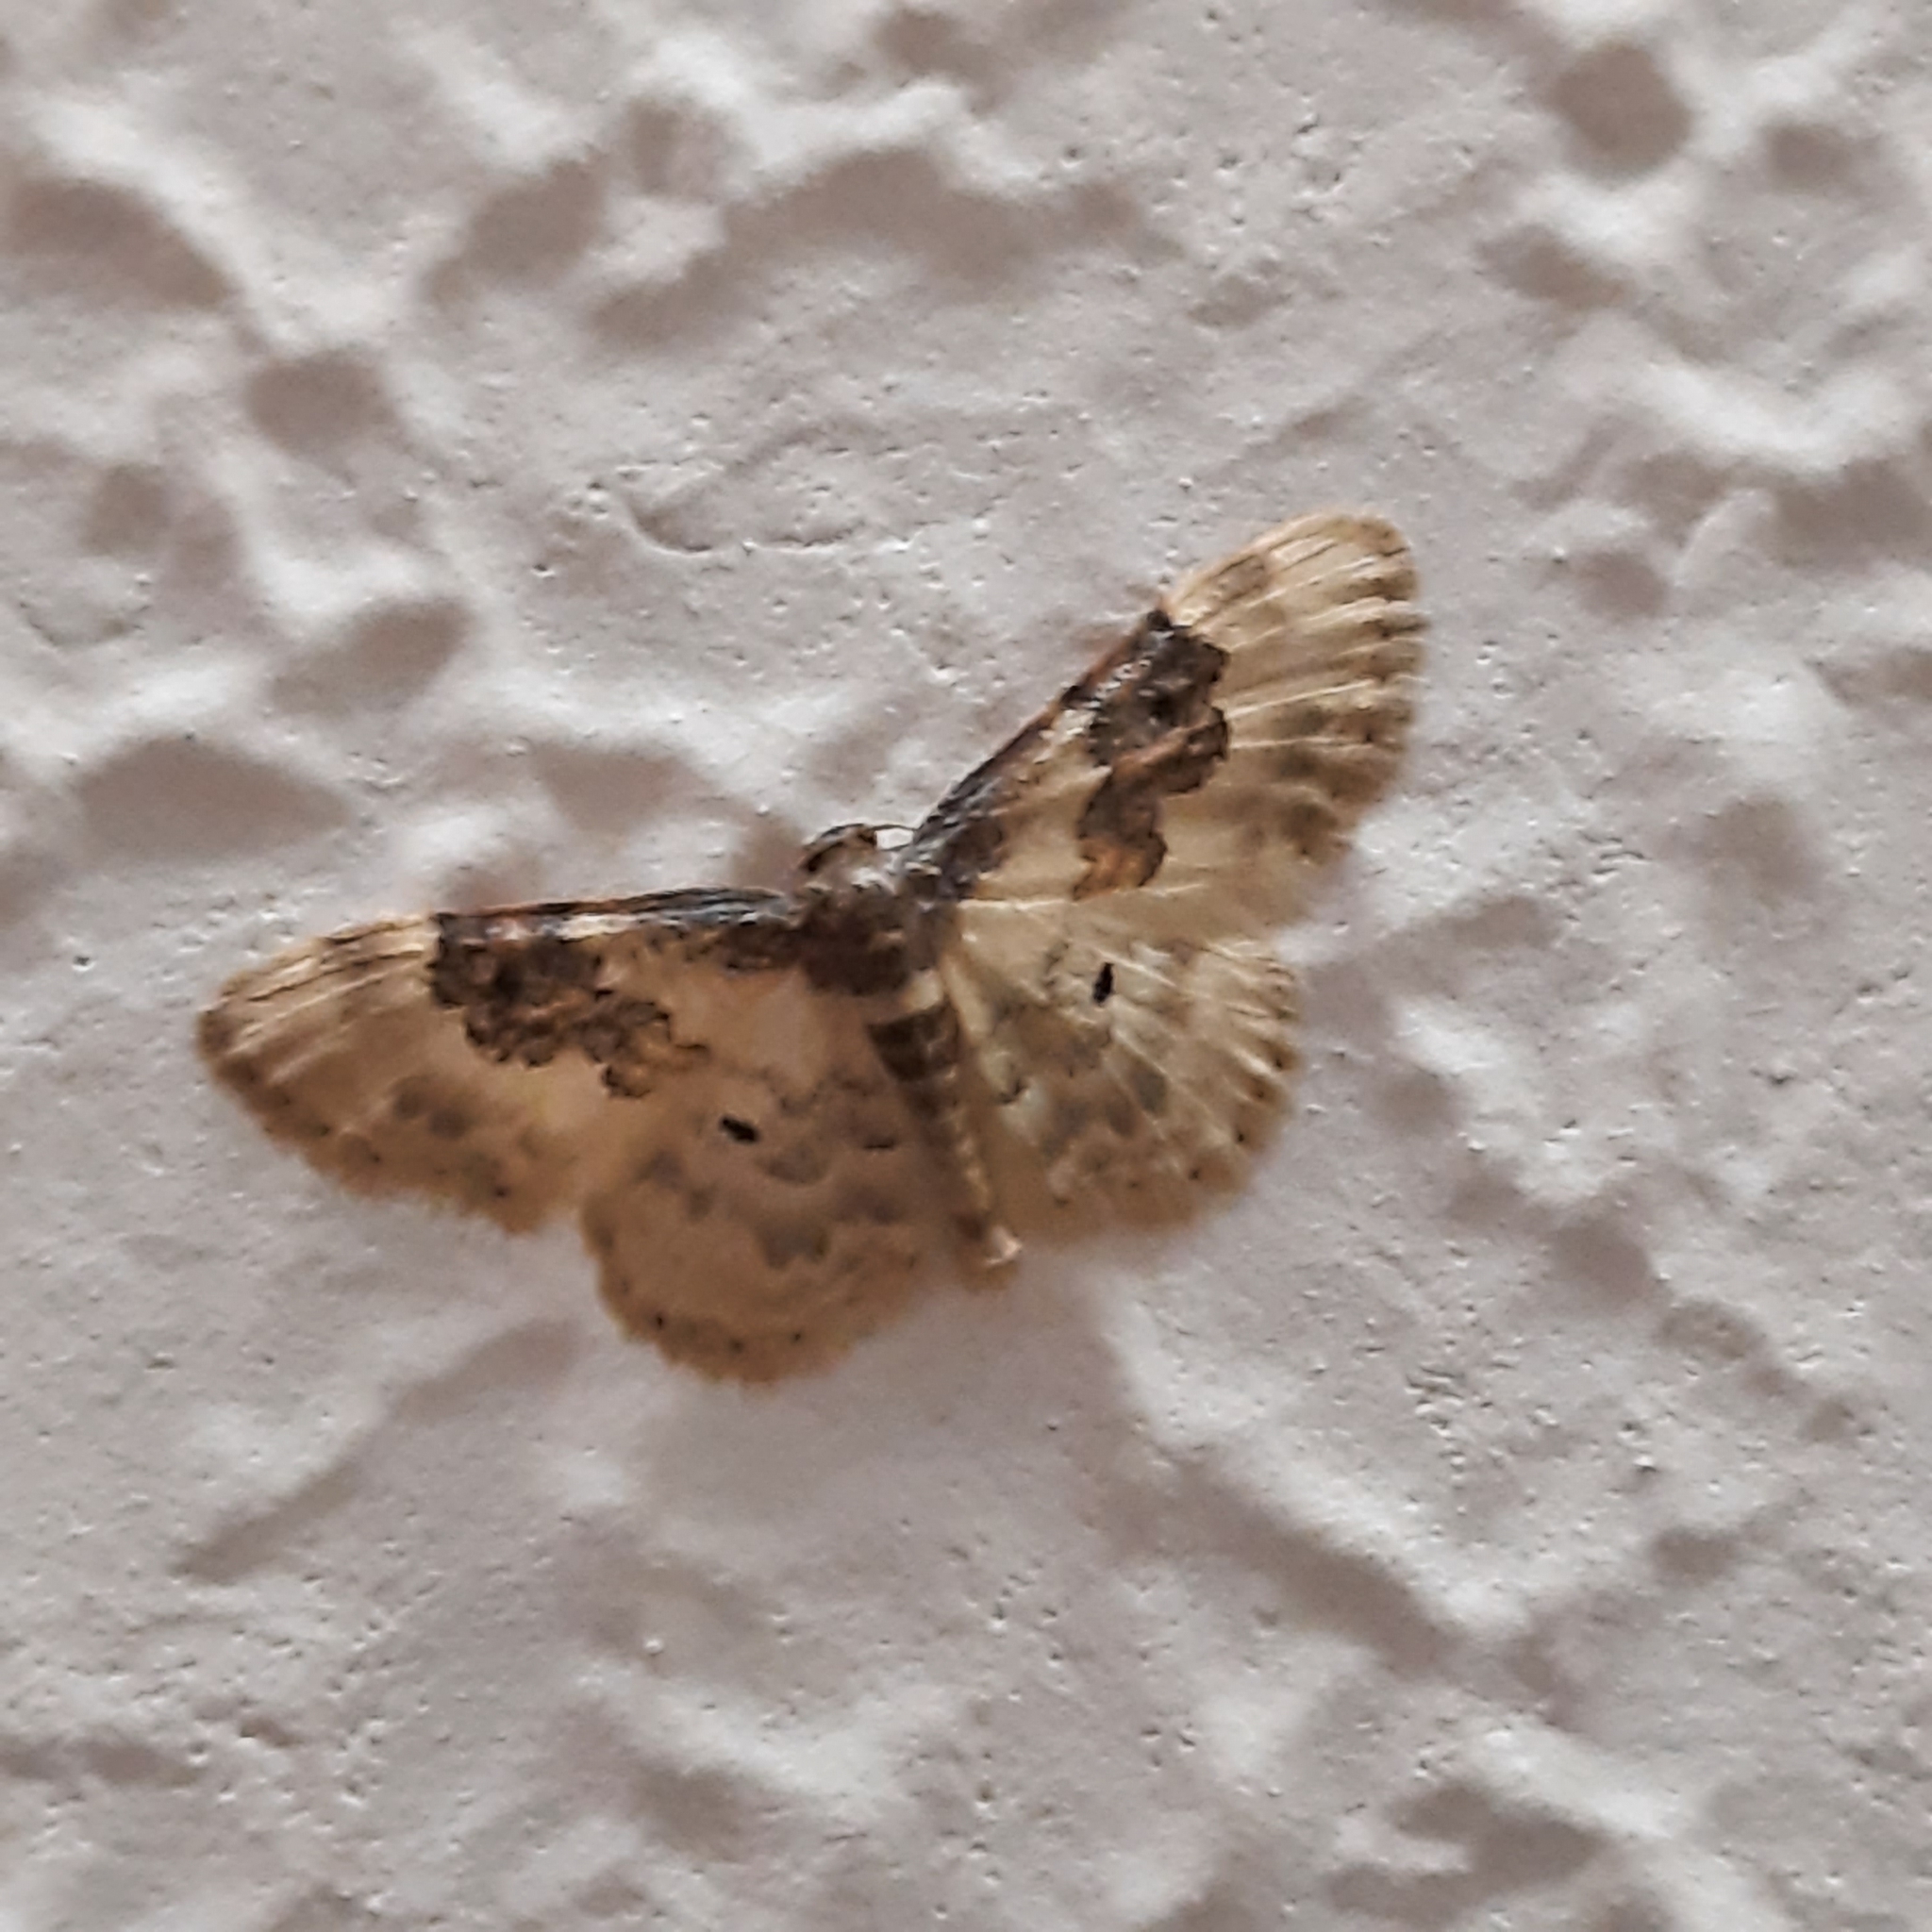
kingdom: Animalia
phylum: Arthropoda
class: Insecta
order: Lepidoptera
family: Geometridae
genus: Idaea
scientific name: Idaea rusticata
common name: Least carpet
